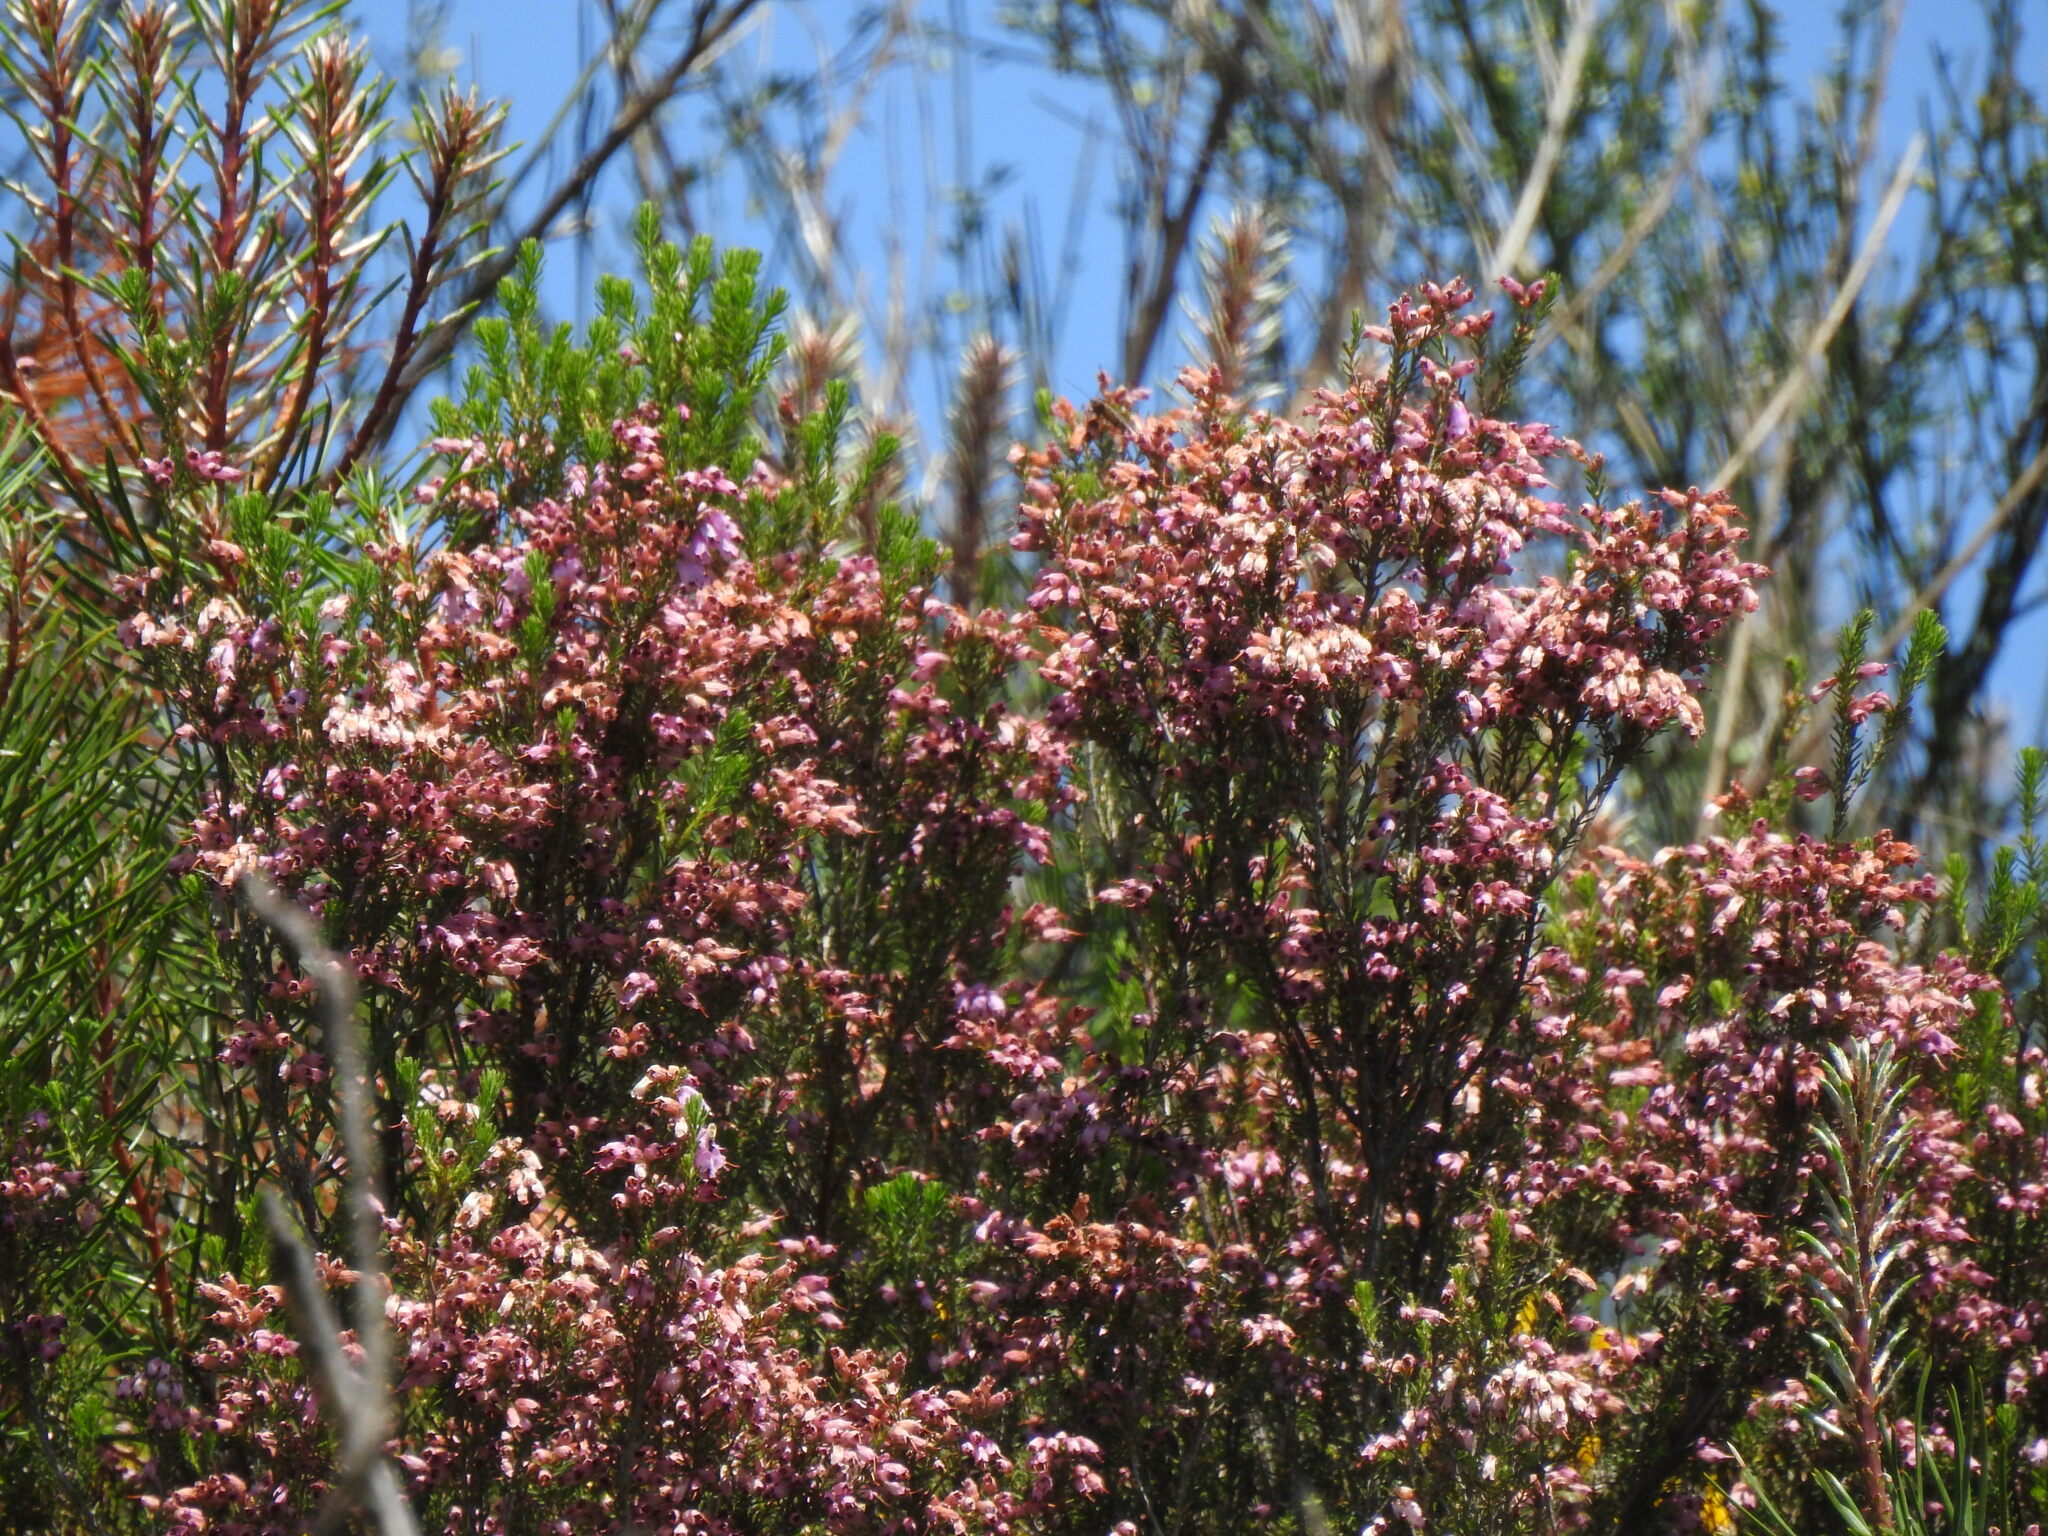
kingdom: Plantae
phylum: Tracheophyta
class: Magnoliopsida
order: Ericales
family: Ericaceae
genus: Erica
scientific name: Erica australis
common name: Spanish heath
